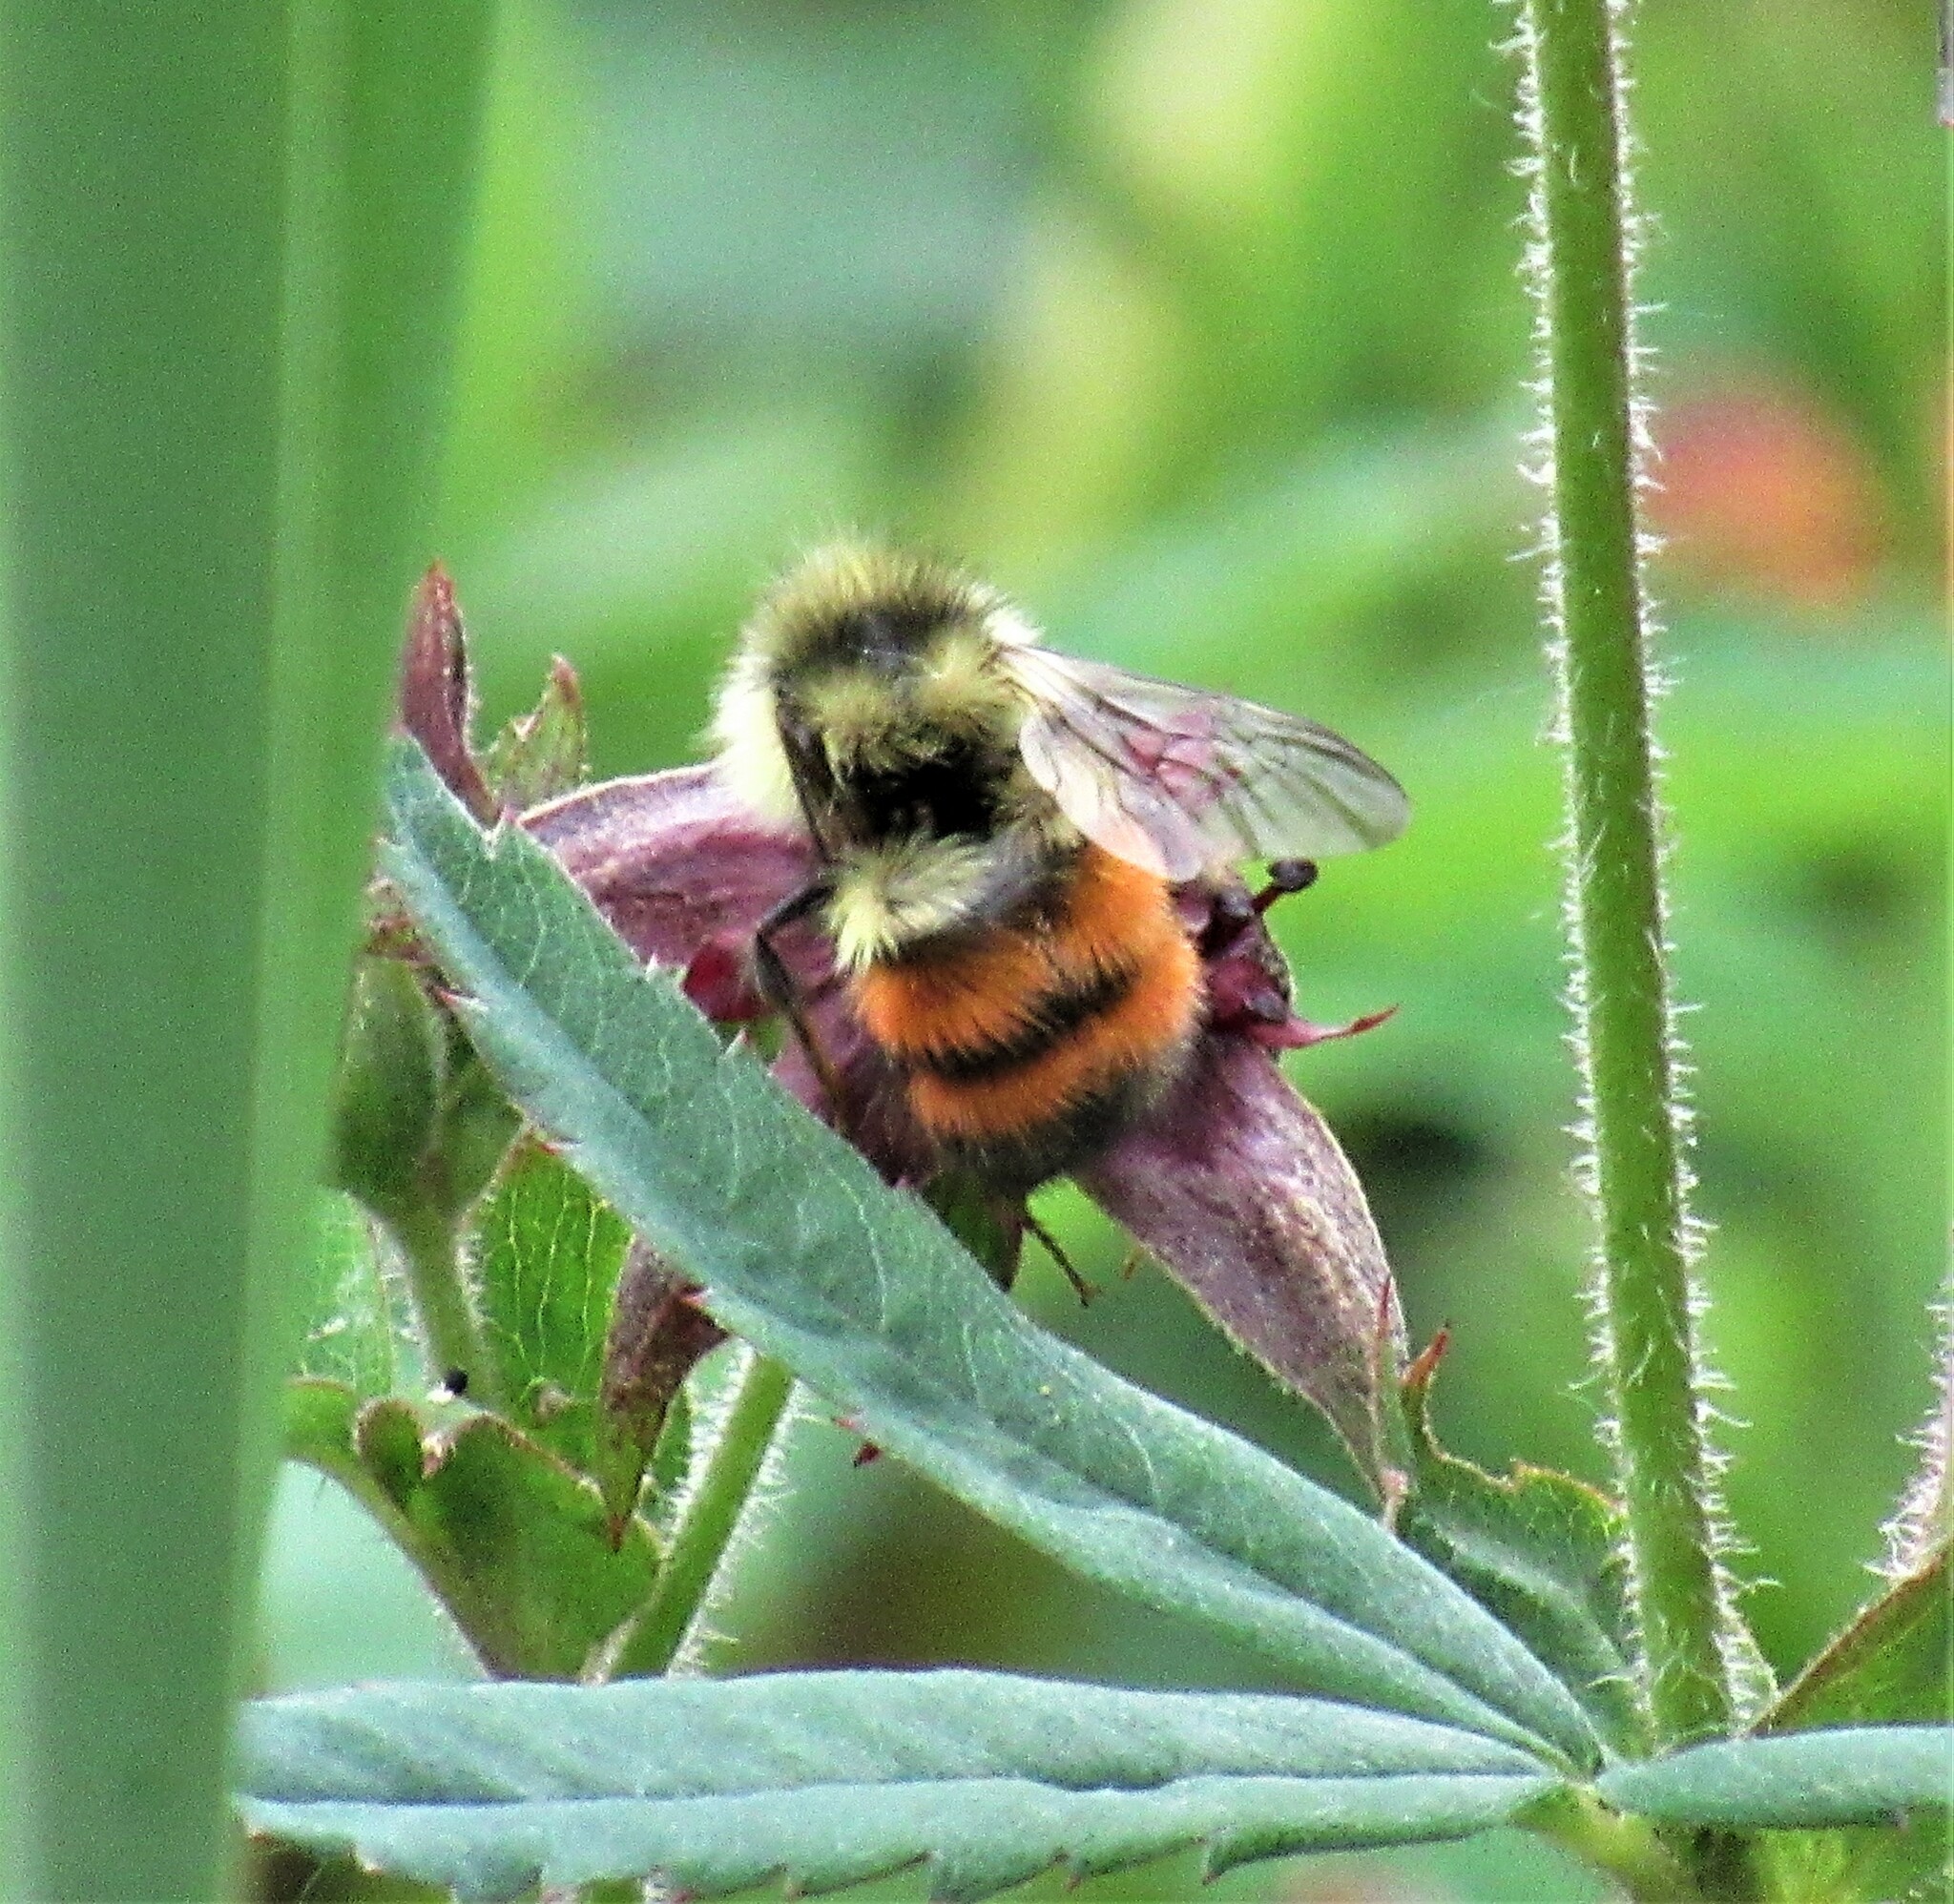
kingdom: Animalia
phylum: Arthropoda
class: Insecta
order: Hymenoptera
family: Apidae
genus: Bombus
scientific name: Bombus melanopygus
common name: Black tail bumble bee
